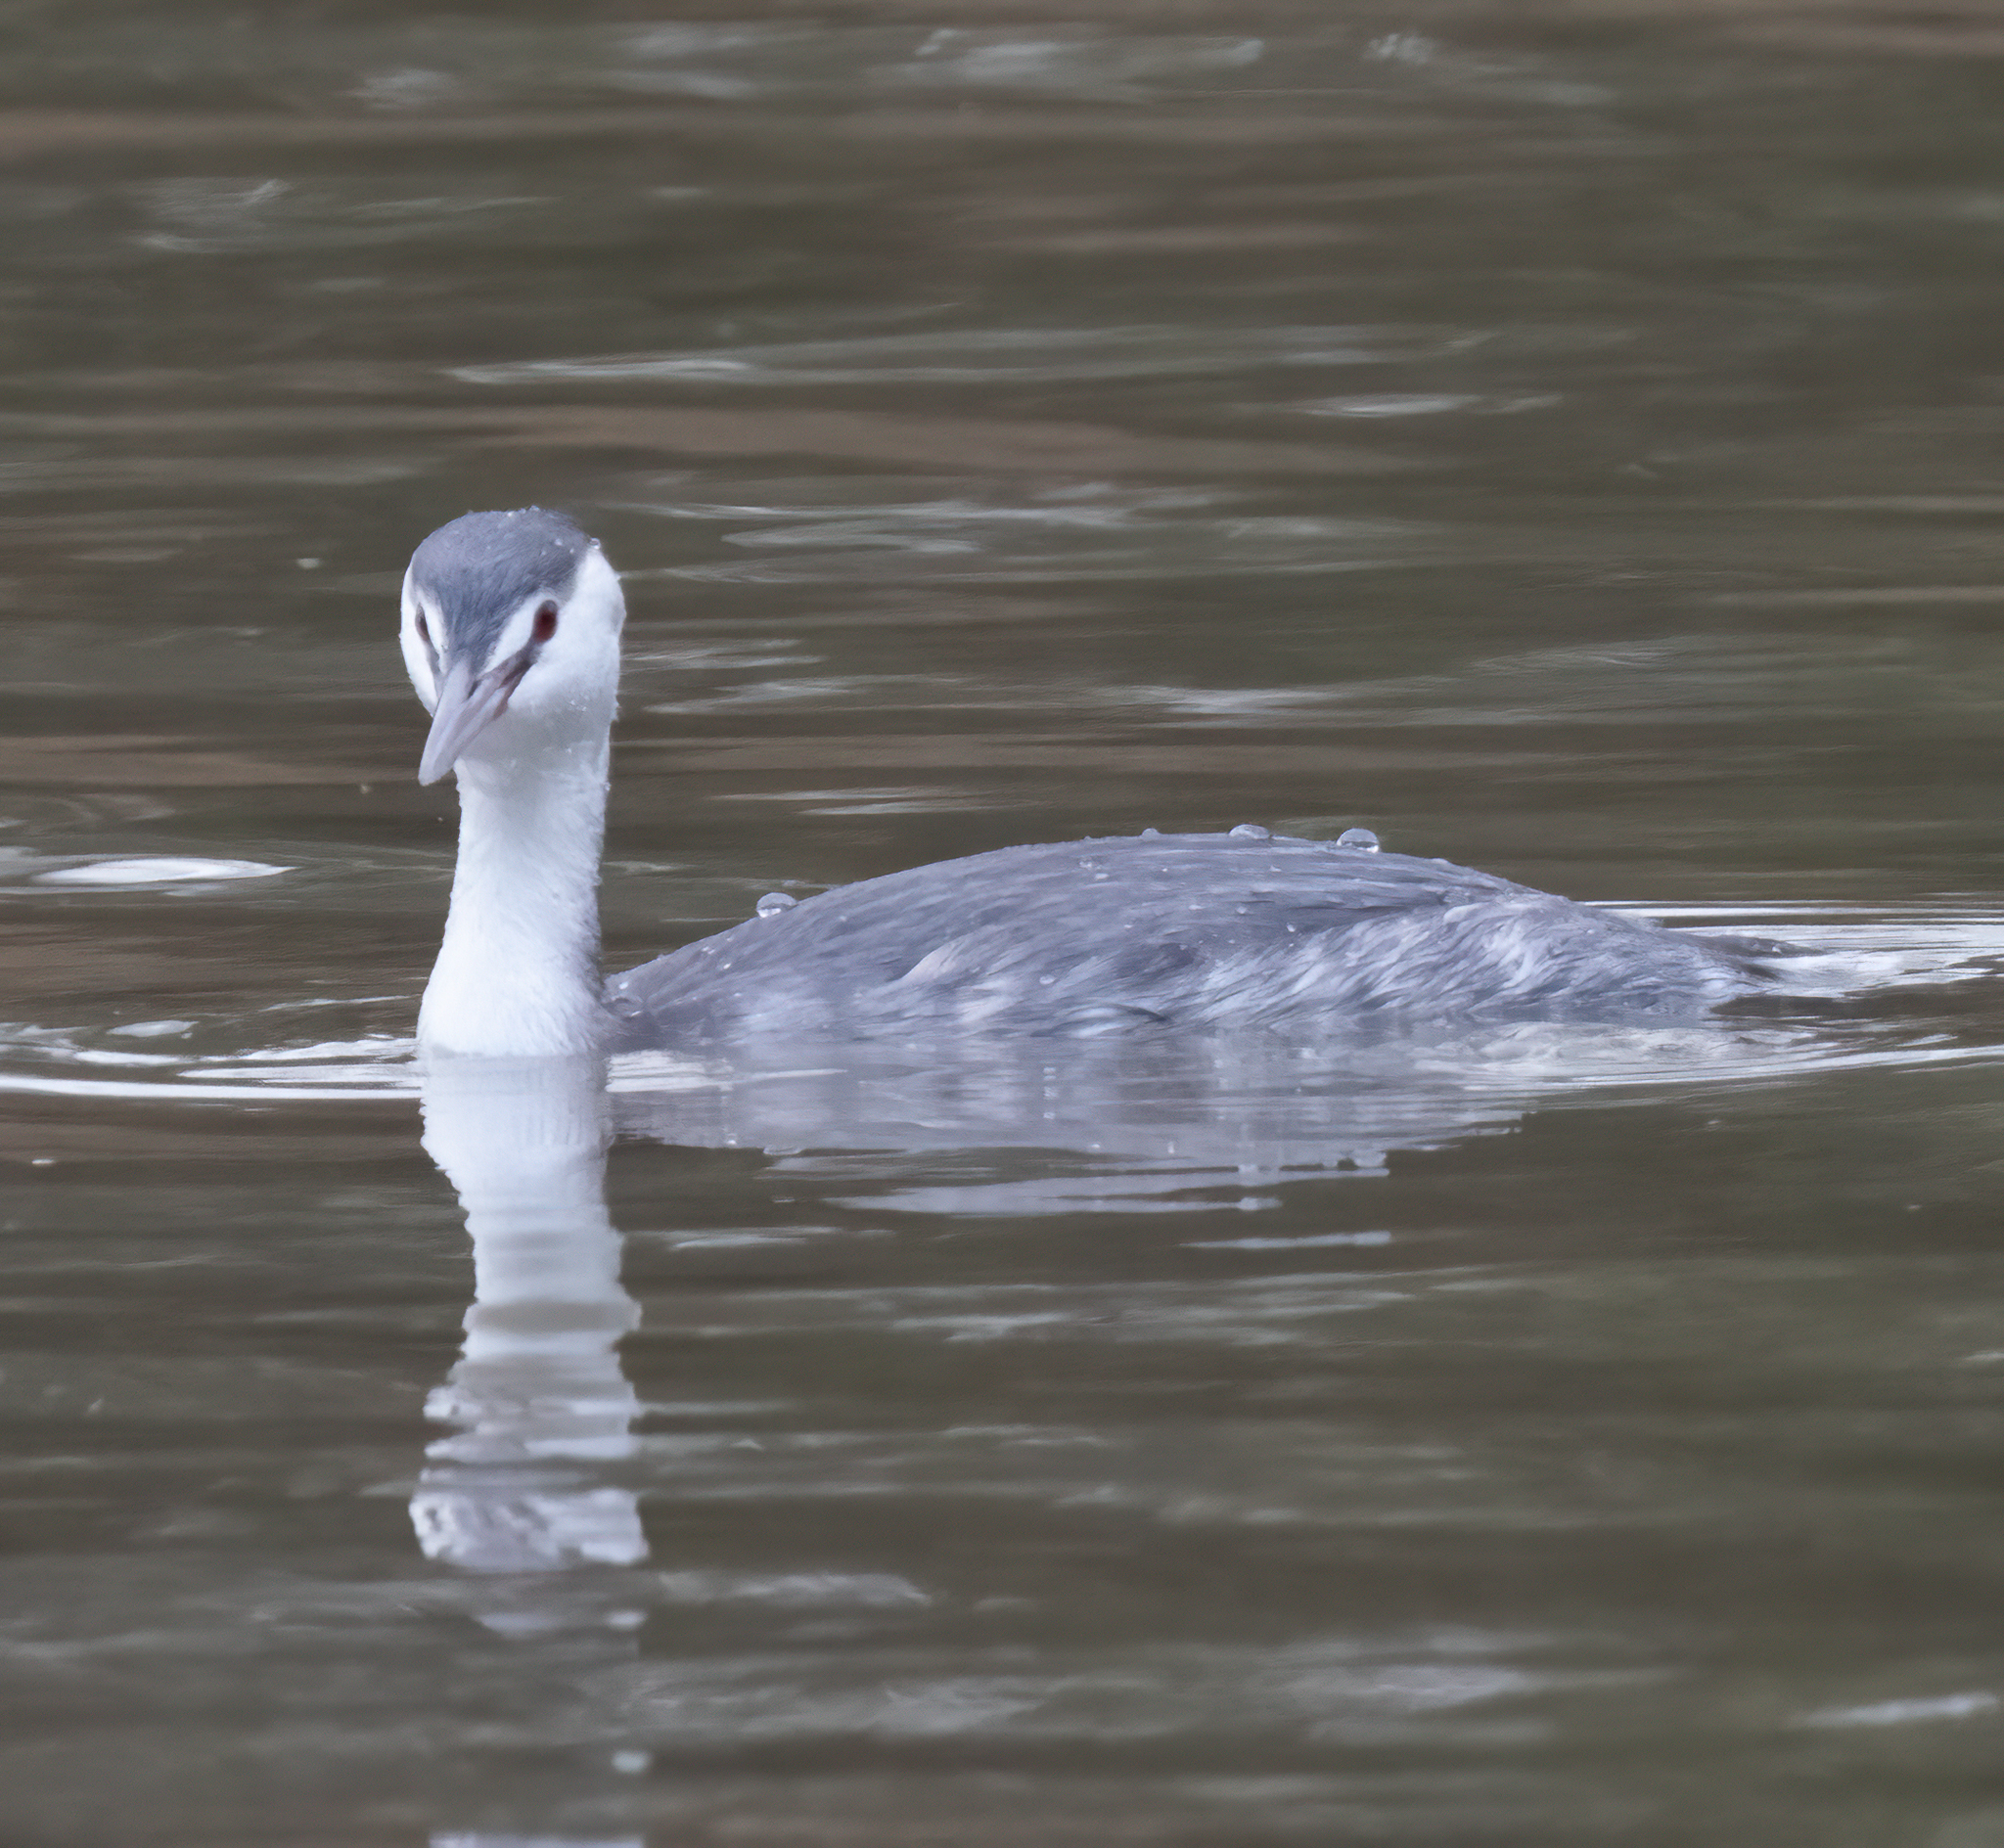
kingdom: Animalia
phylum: Chordata
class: Aves
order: Podicipediformes
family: Podicipedidae
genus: Podiceps
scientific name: Podiceps cristatus
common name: Great crested grebe
